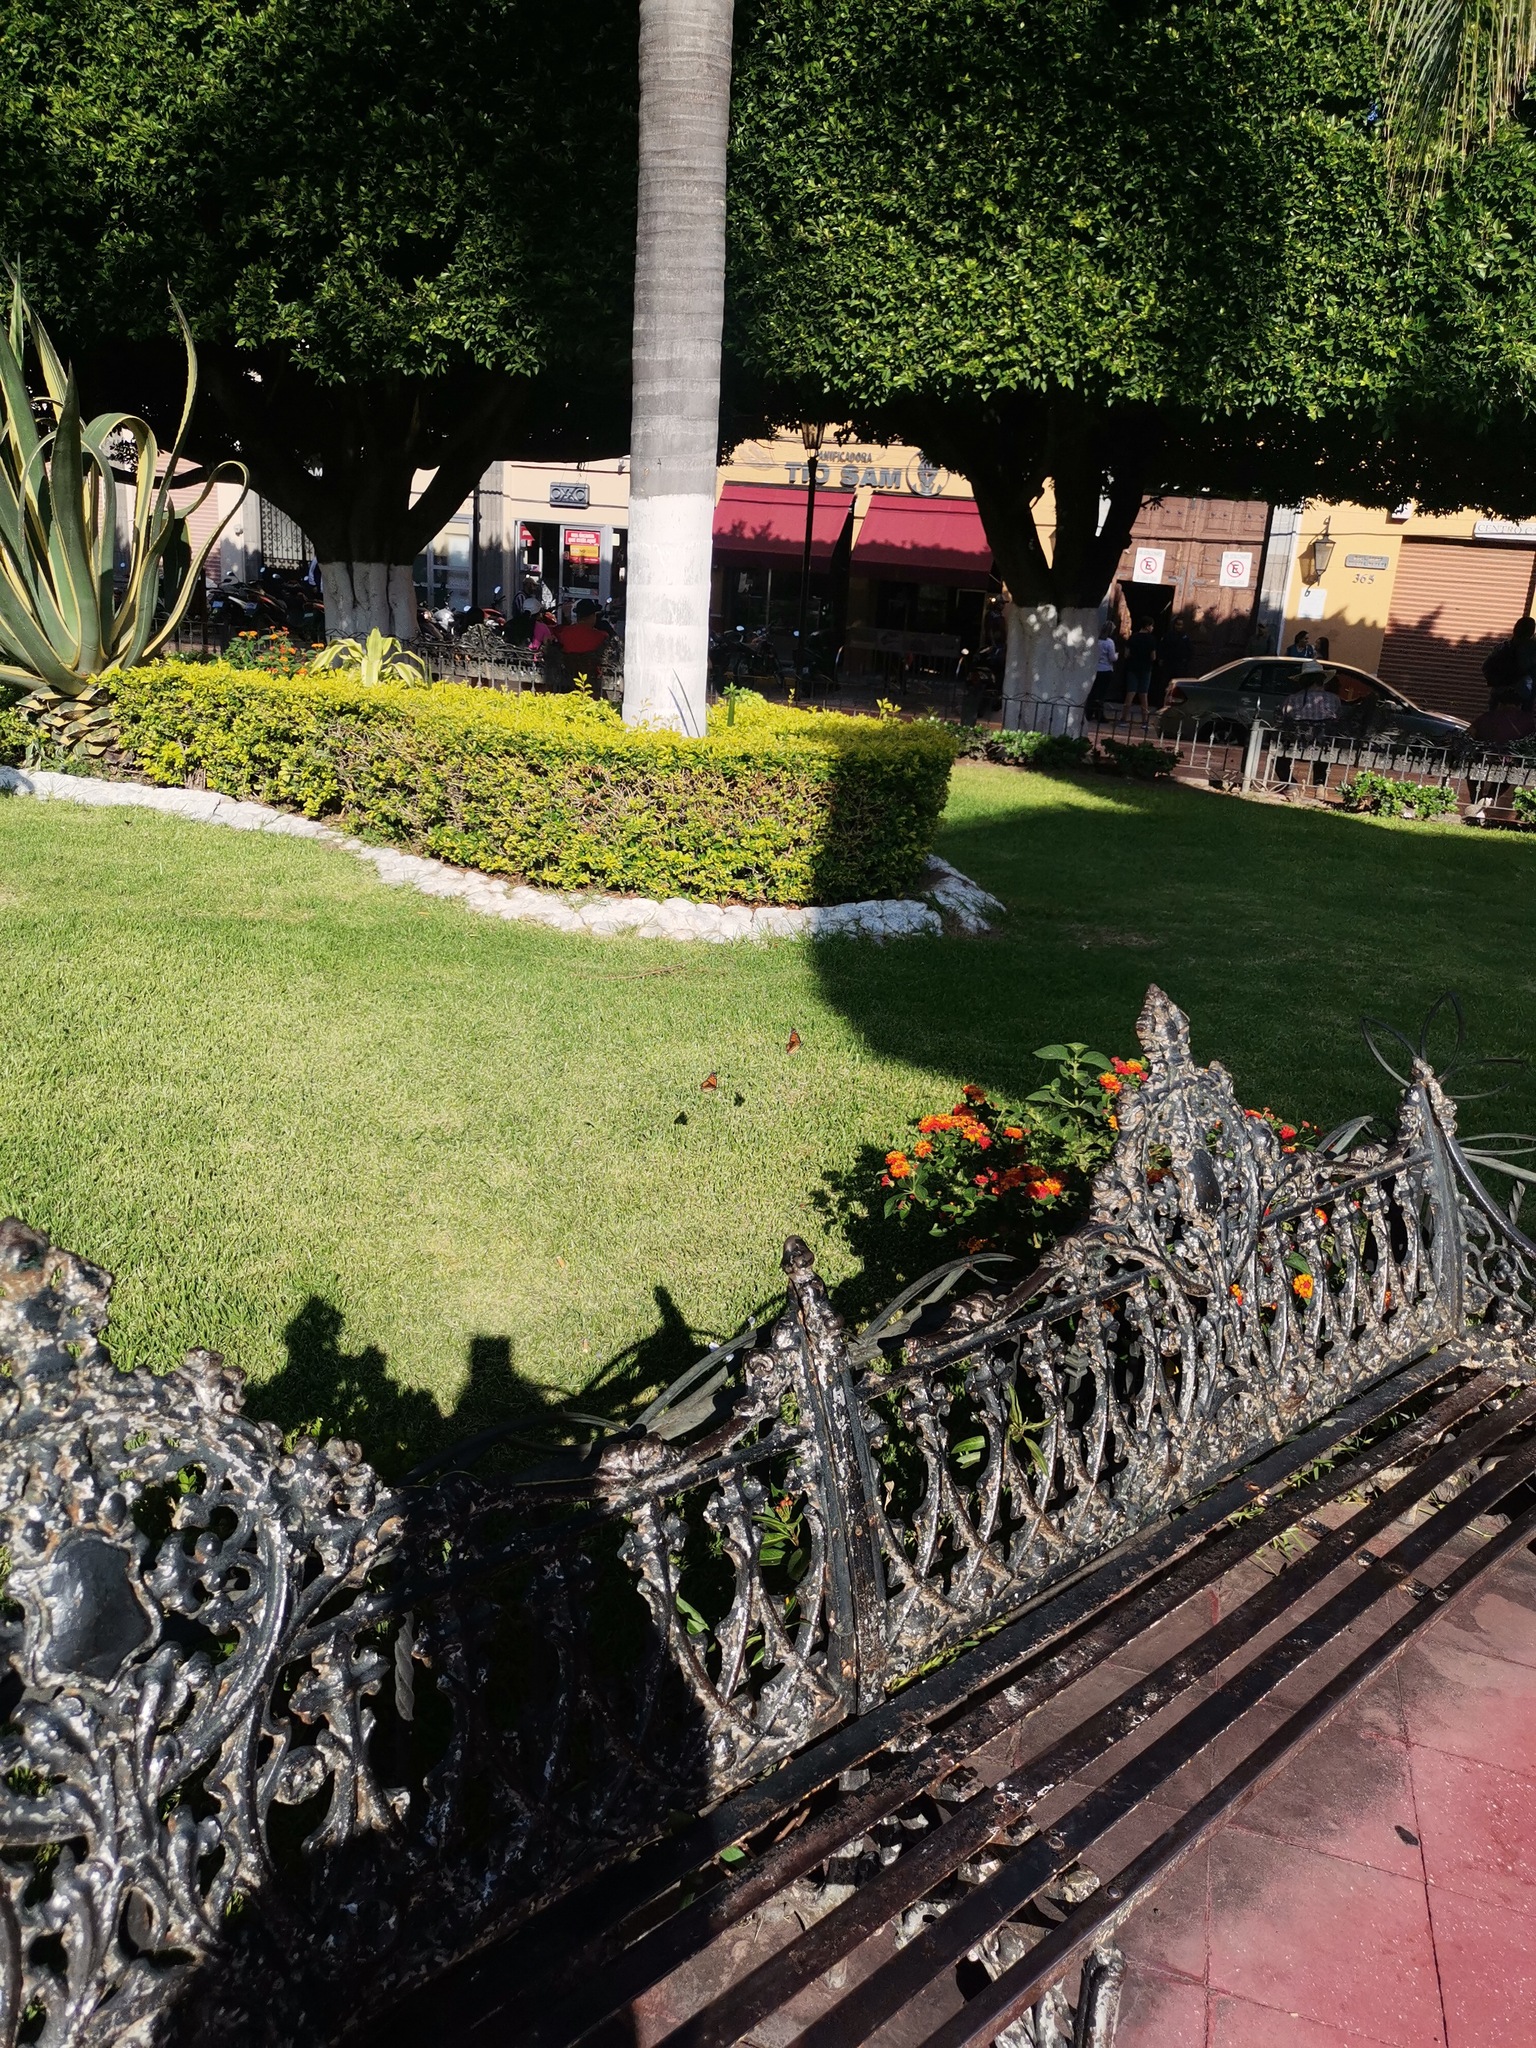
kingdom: Animalia
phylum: Arthropoda
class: Insecta
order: Lepidoptera
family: Nymphalidae
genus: Danaus
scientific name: Danaus plexippus
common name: Monarch
